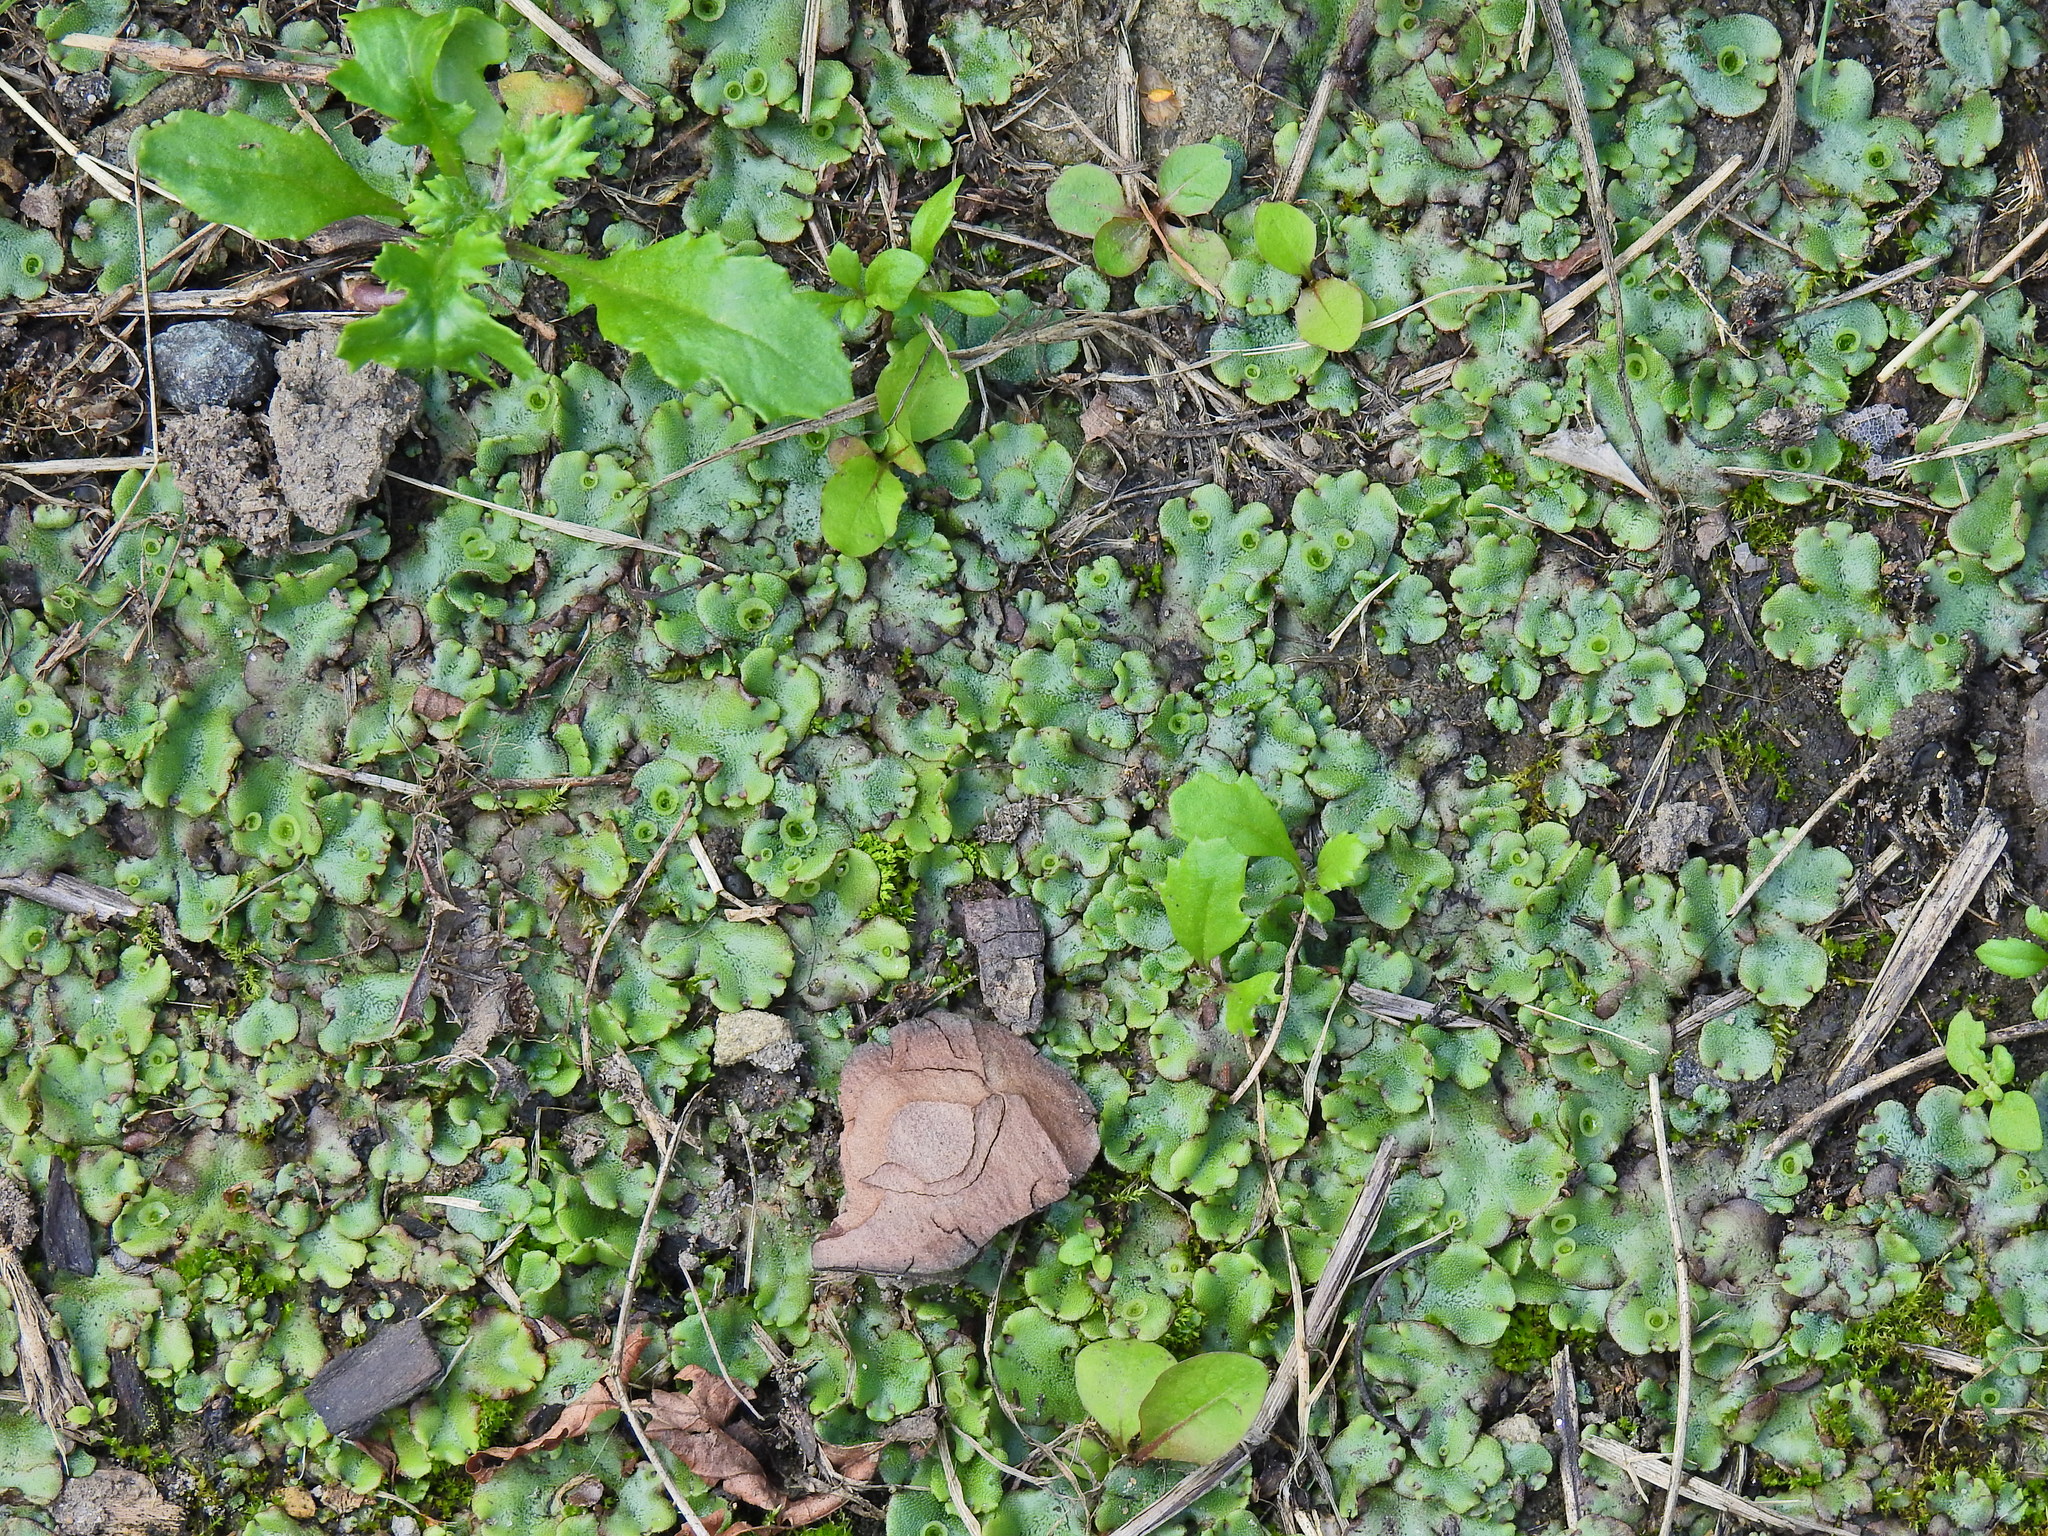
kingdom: Plantae
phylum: Marchantiophyta
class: Marchantiopsida
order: Marchantiales
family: Marchantiaceae
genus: Marchantia
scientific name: Marchantia polymorpha
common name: Common liverwort
